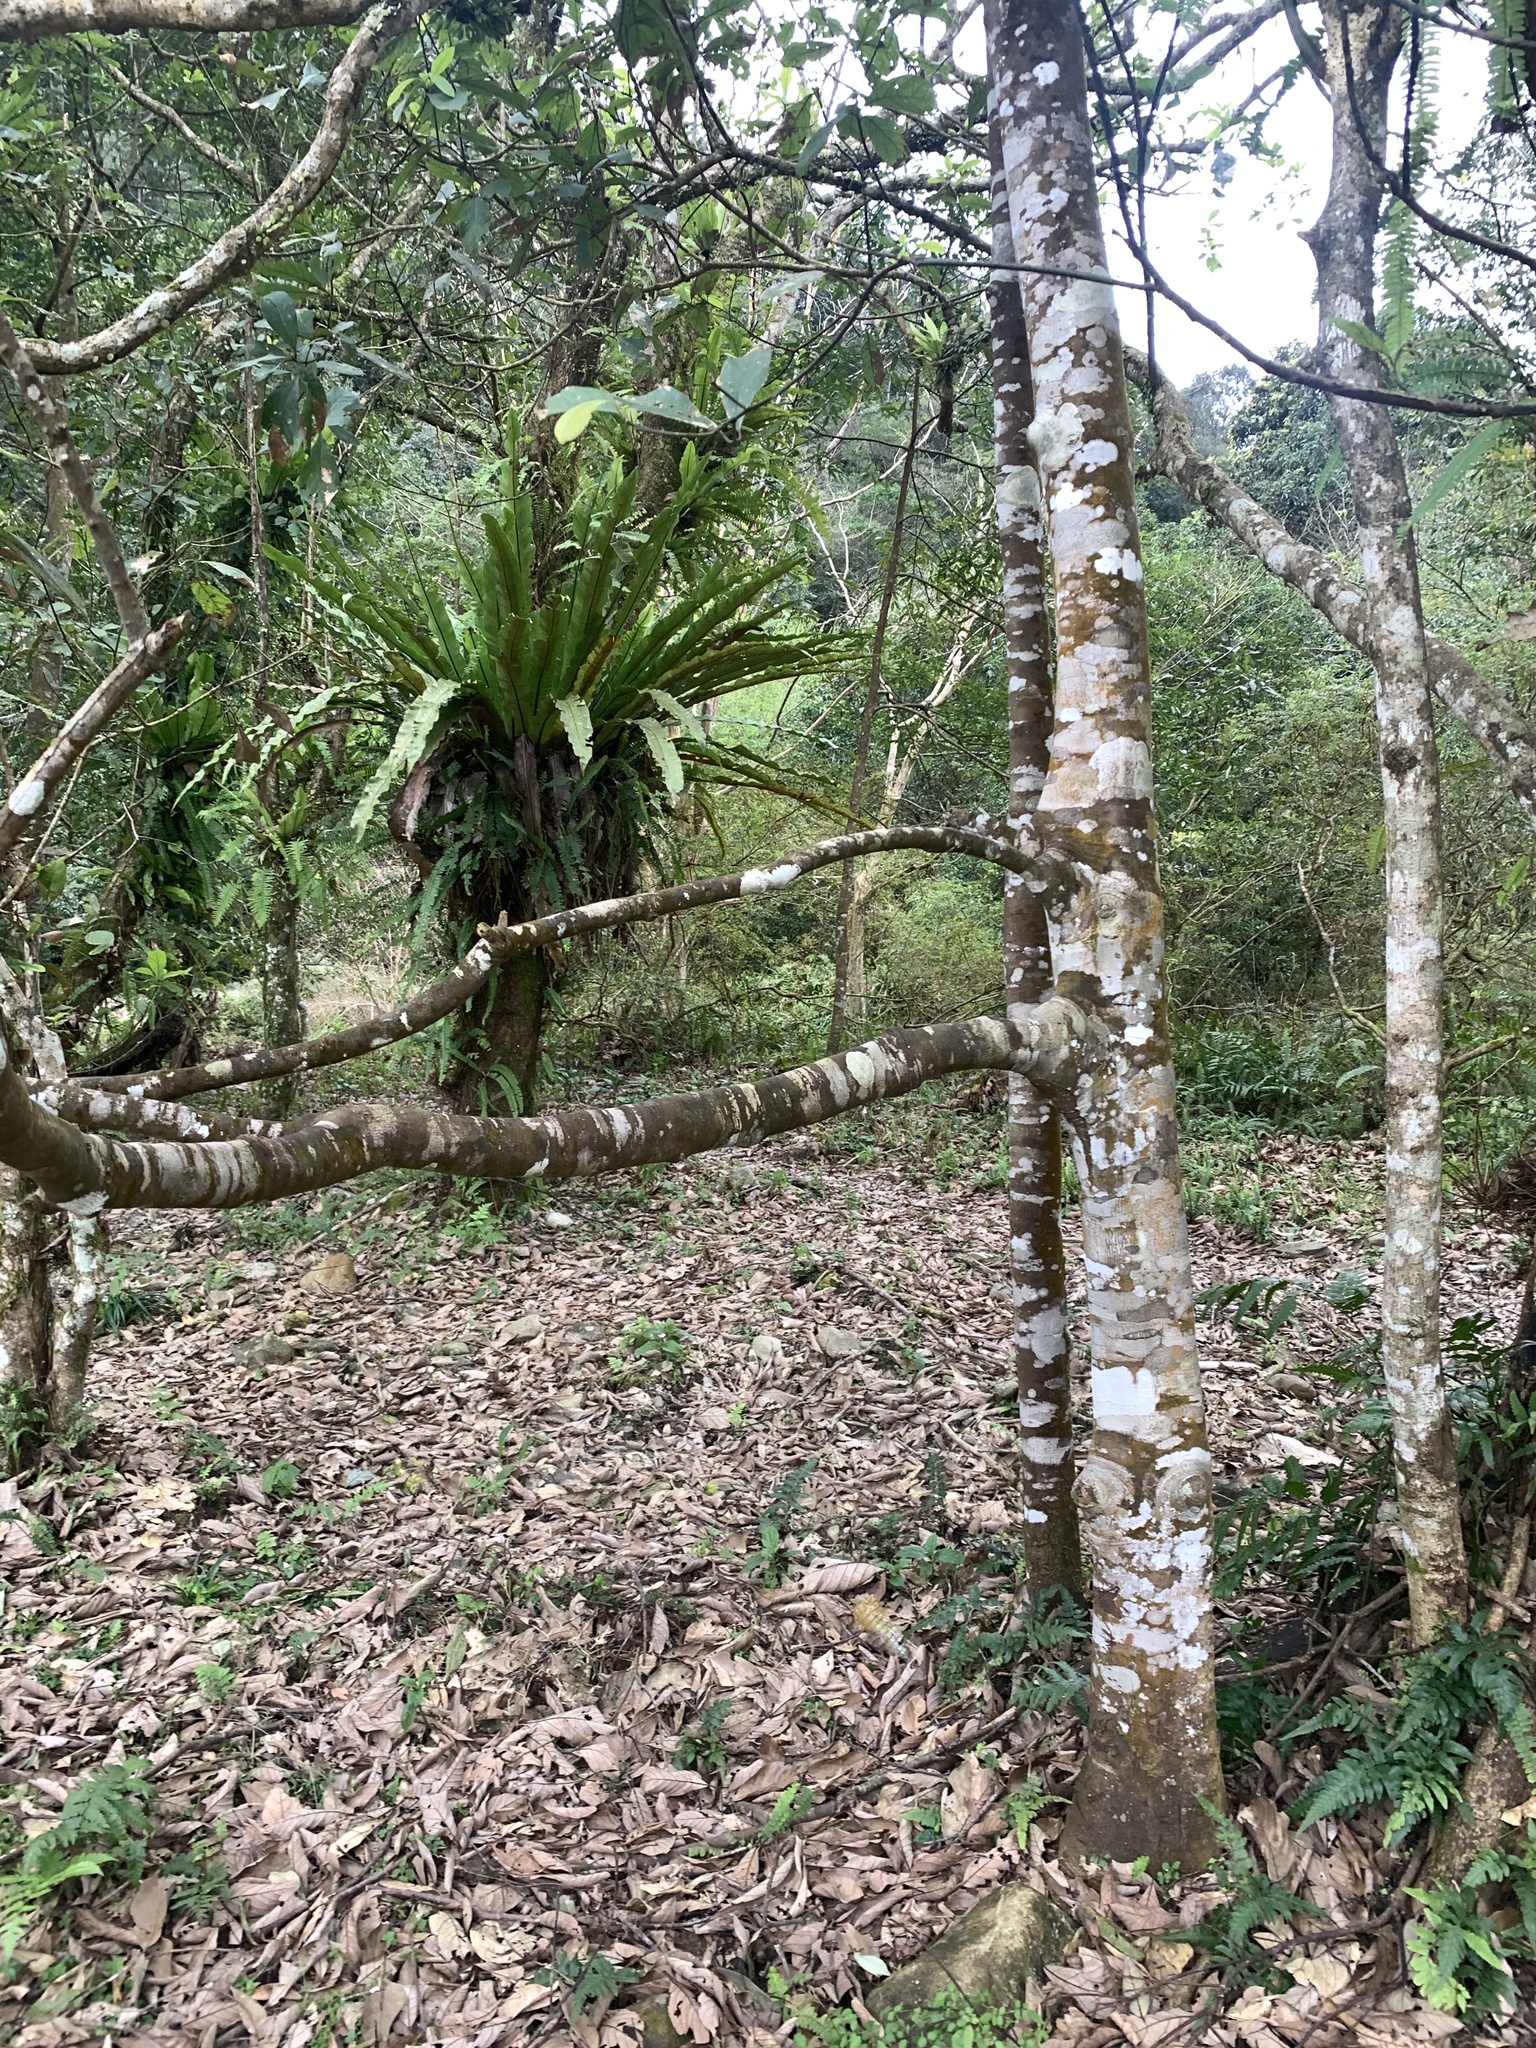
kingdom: Plantae
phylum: Tracheophyta
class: Magnoliopsida
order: Ericales
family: Symplocaceae
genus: Symplocos
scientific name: Symplocos glauca
